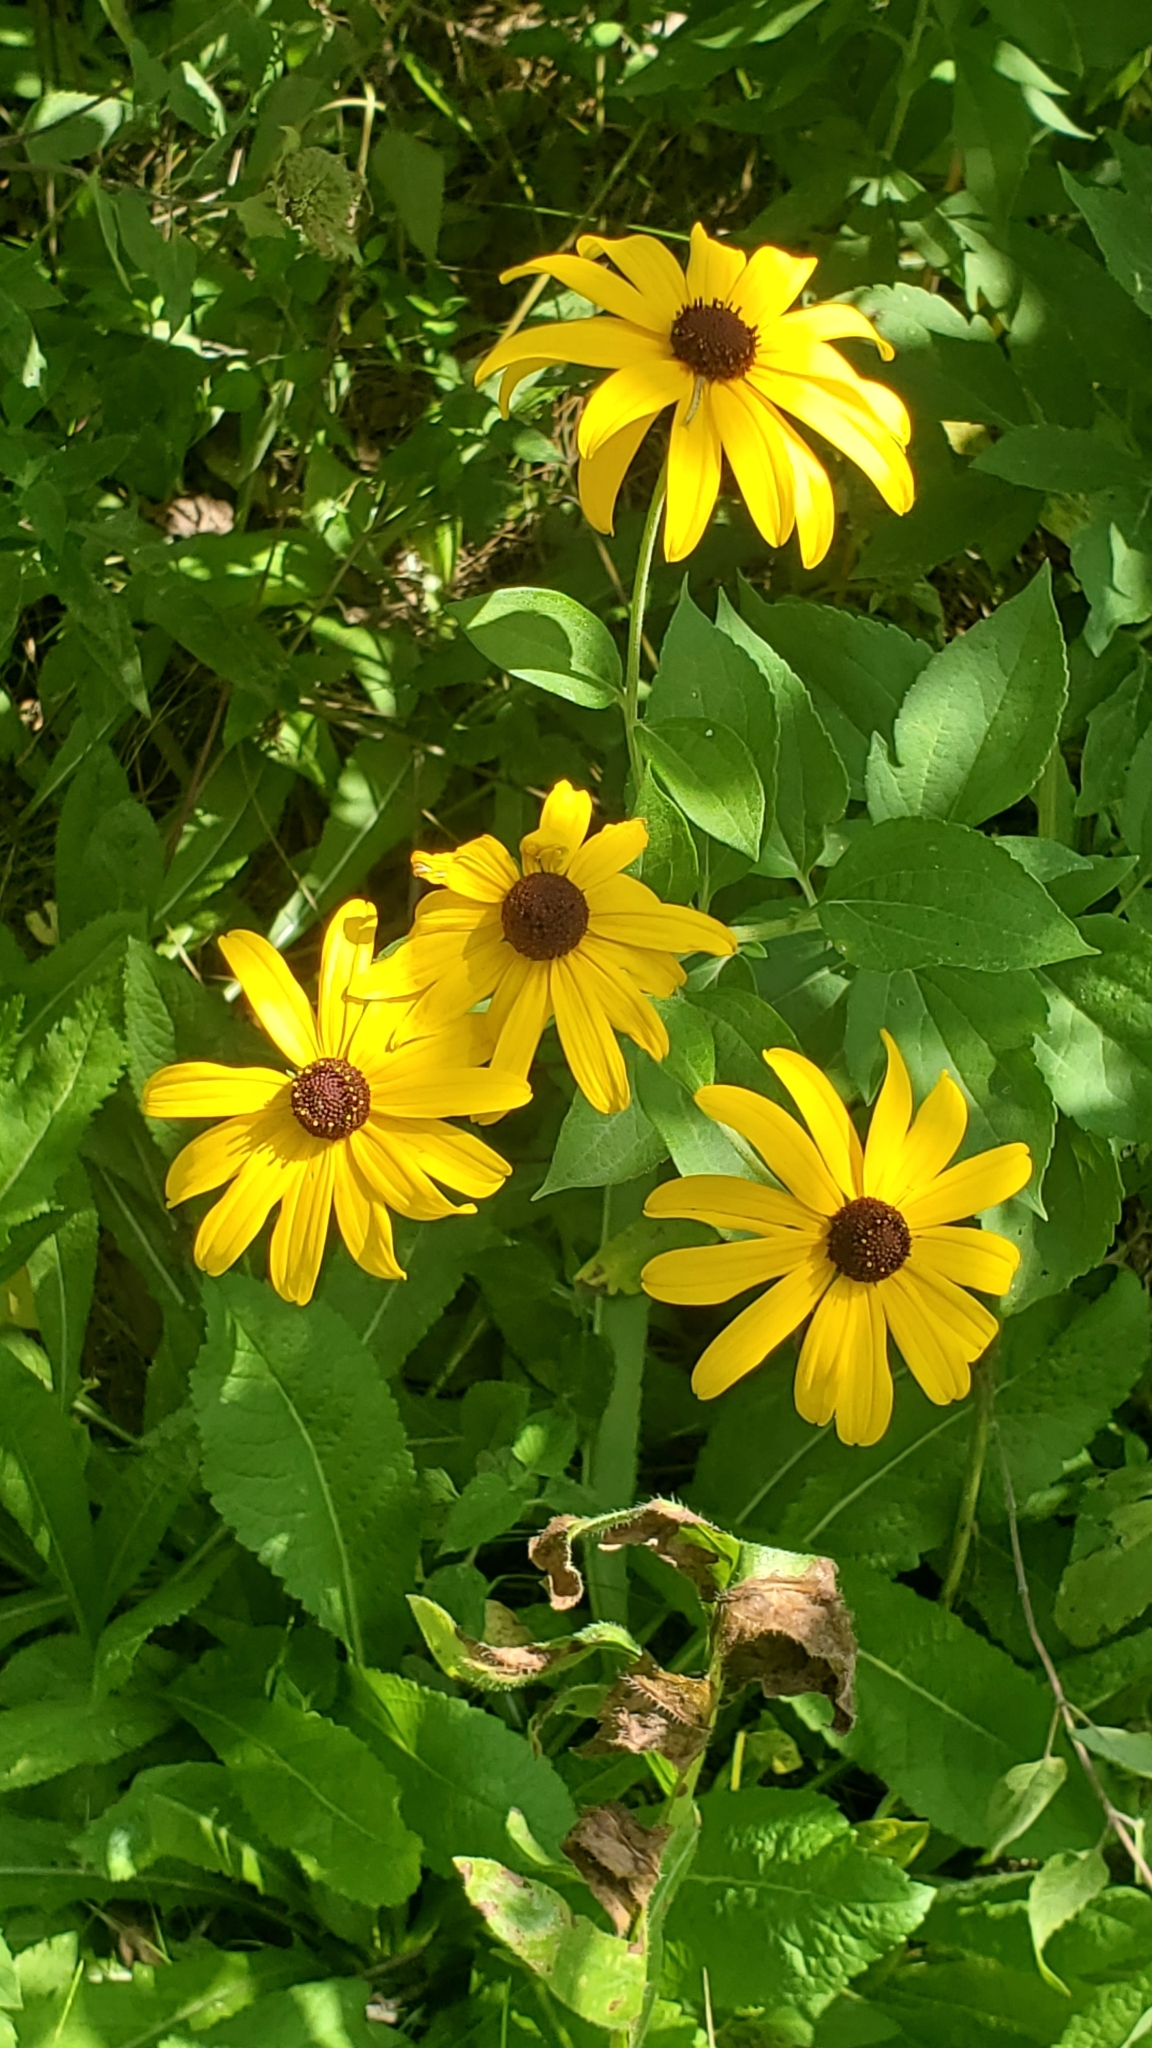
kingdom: Plantae
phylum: Tracheophyta
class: Magnoliopsida
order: Asterales
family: Asteraceae
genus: Rudbeckia
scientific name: Rudbeckia subtomentosa
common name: Sweet coneflower
